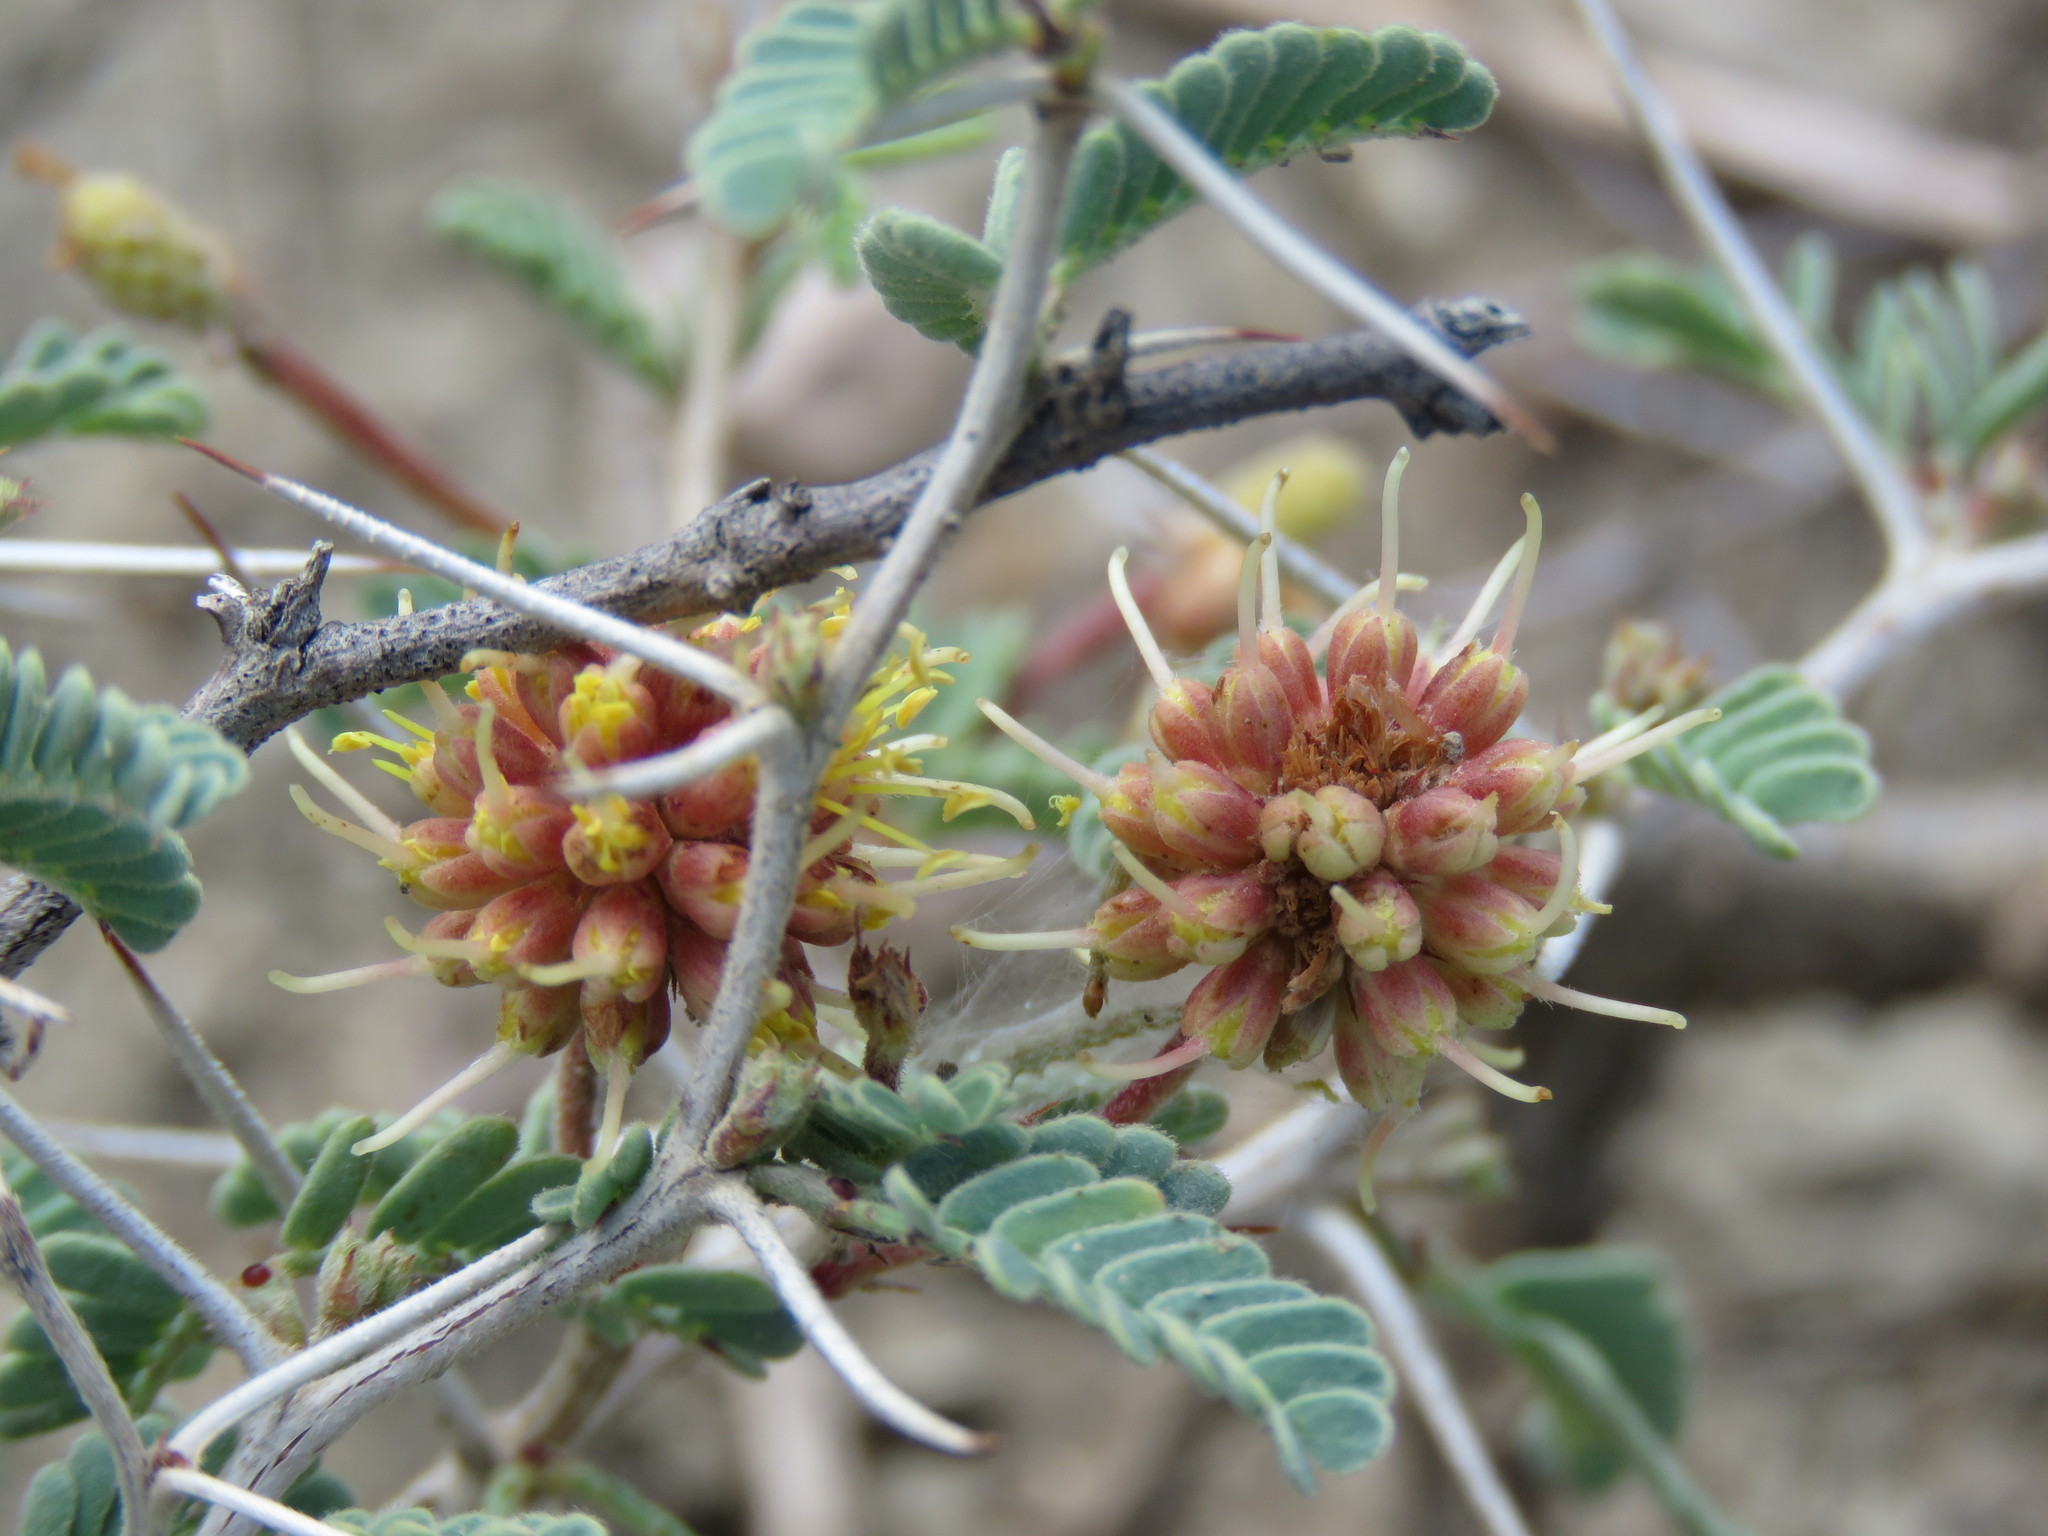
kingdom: Plantae
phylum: Tracheophyta
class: Magnoliopsida
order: Fabales
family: Fabaceae
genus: Prosopis
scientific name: Prosopis cinerascens
